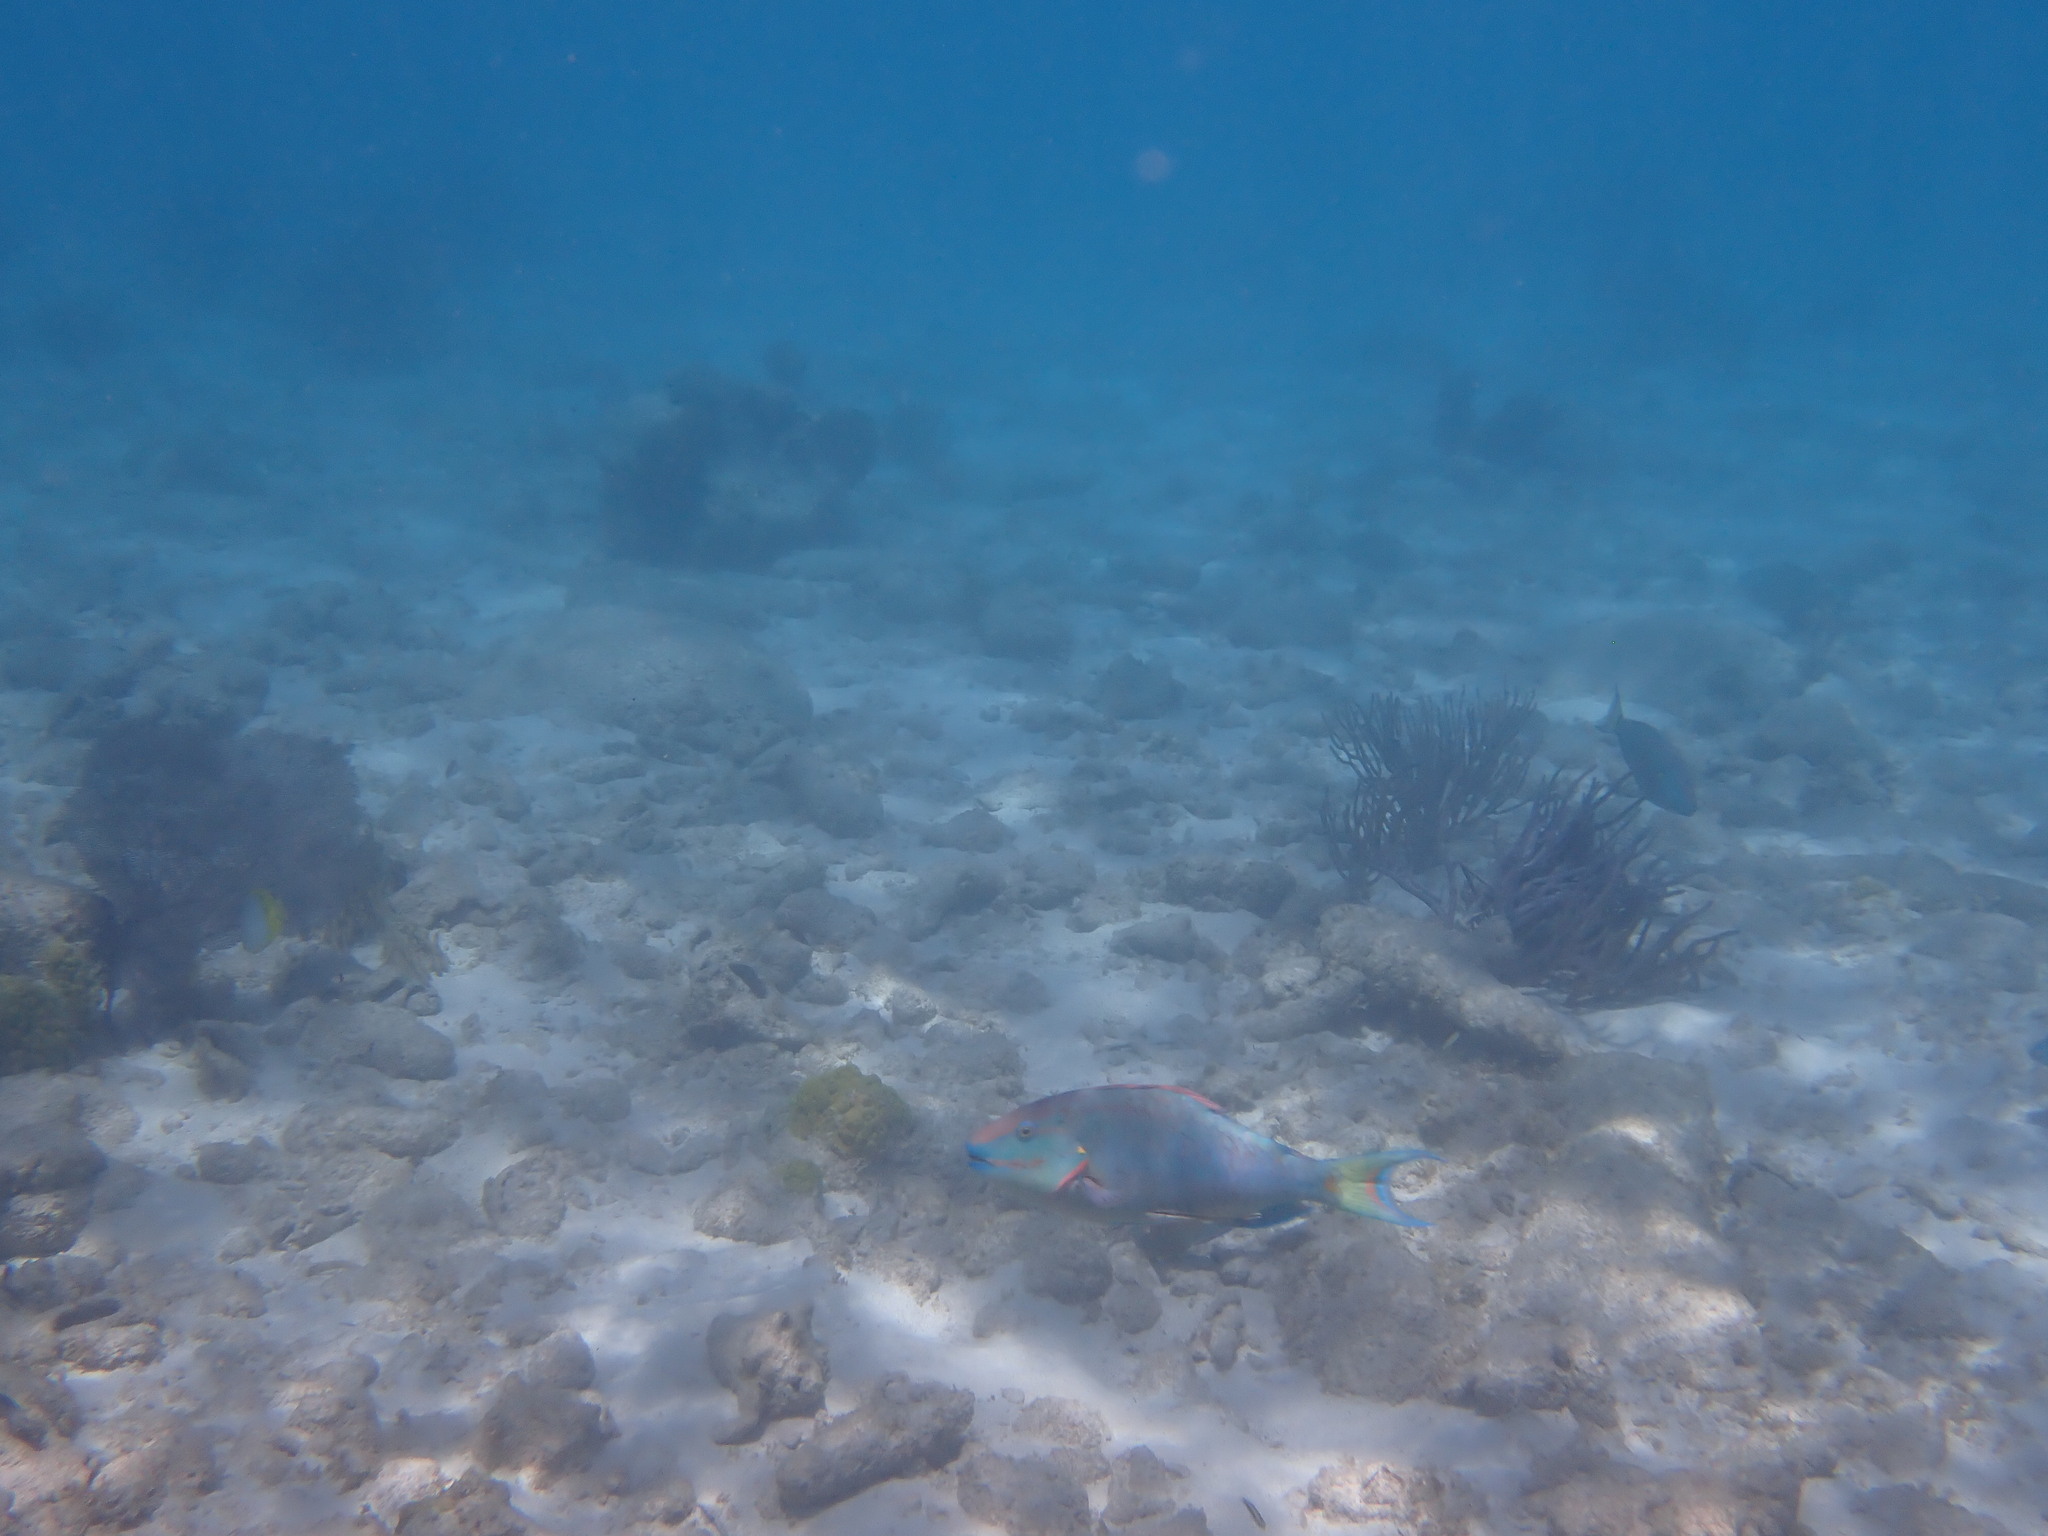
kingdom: Animalia
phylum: Chordata
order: Perciformes
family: Scaridae
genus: Sparisoma
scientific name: Sparisoma viride
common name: Stoplight parrotfish
